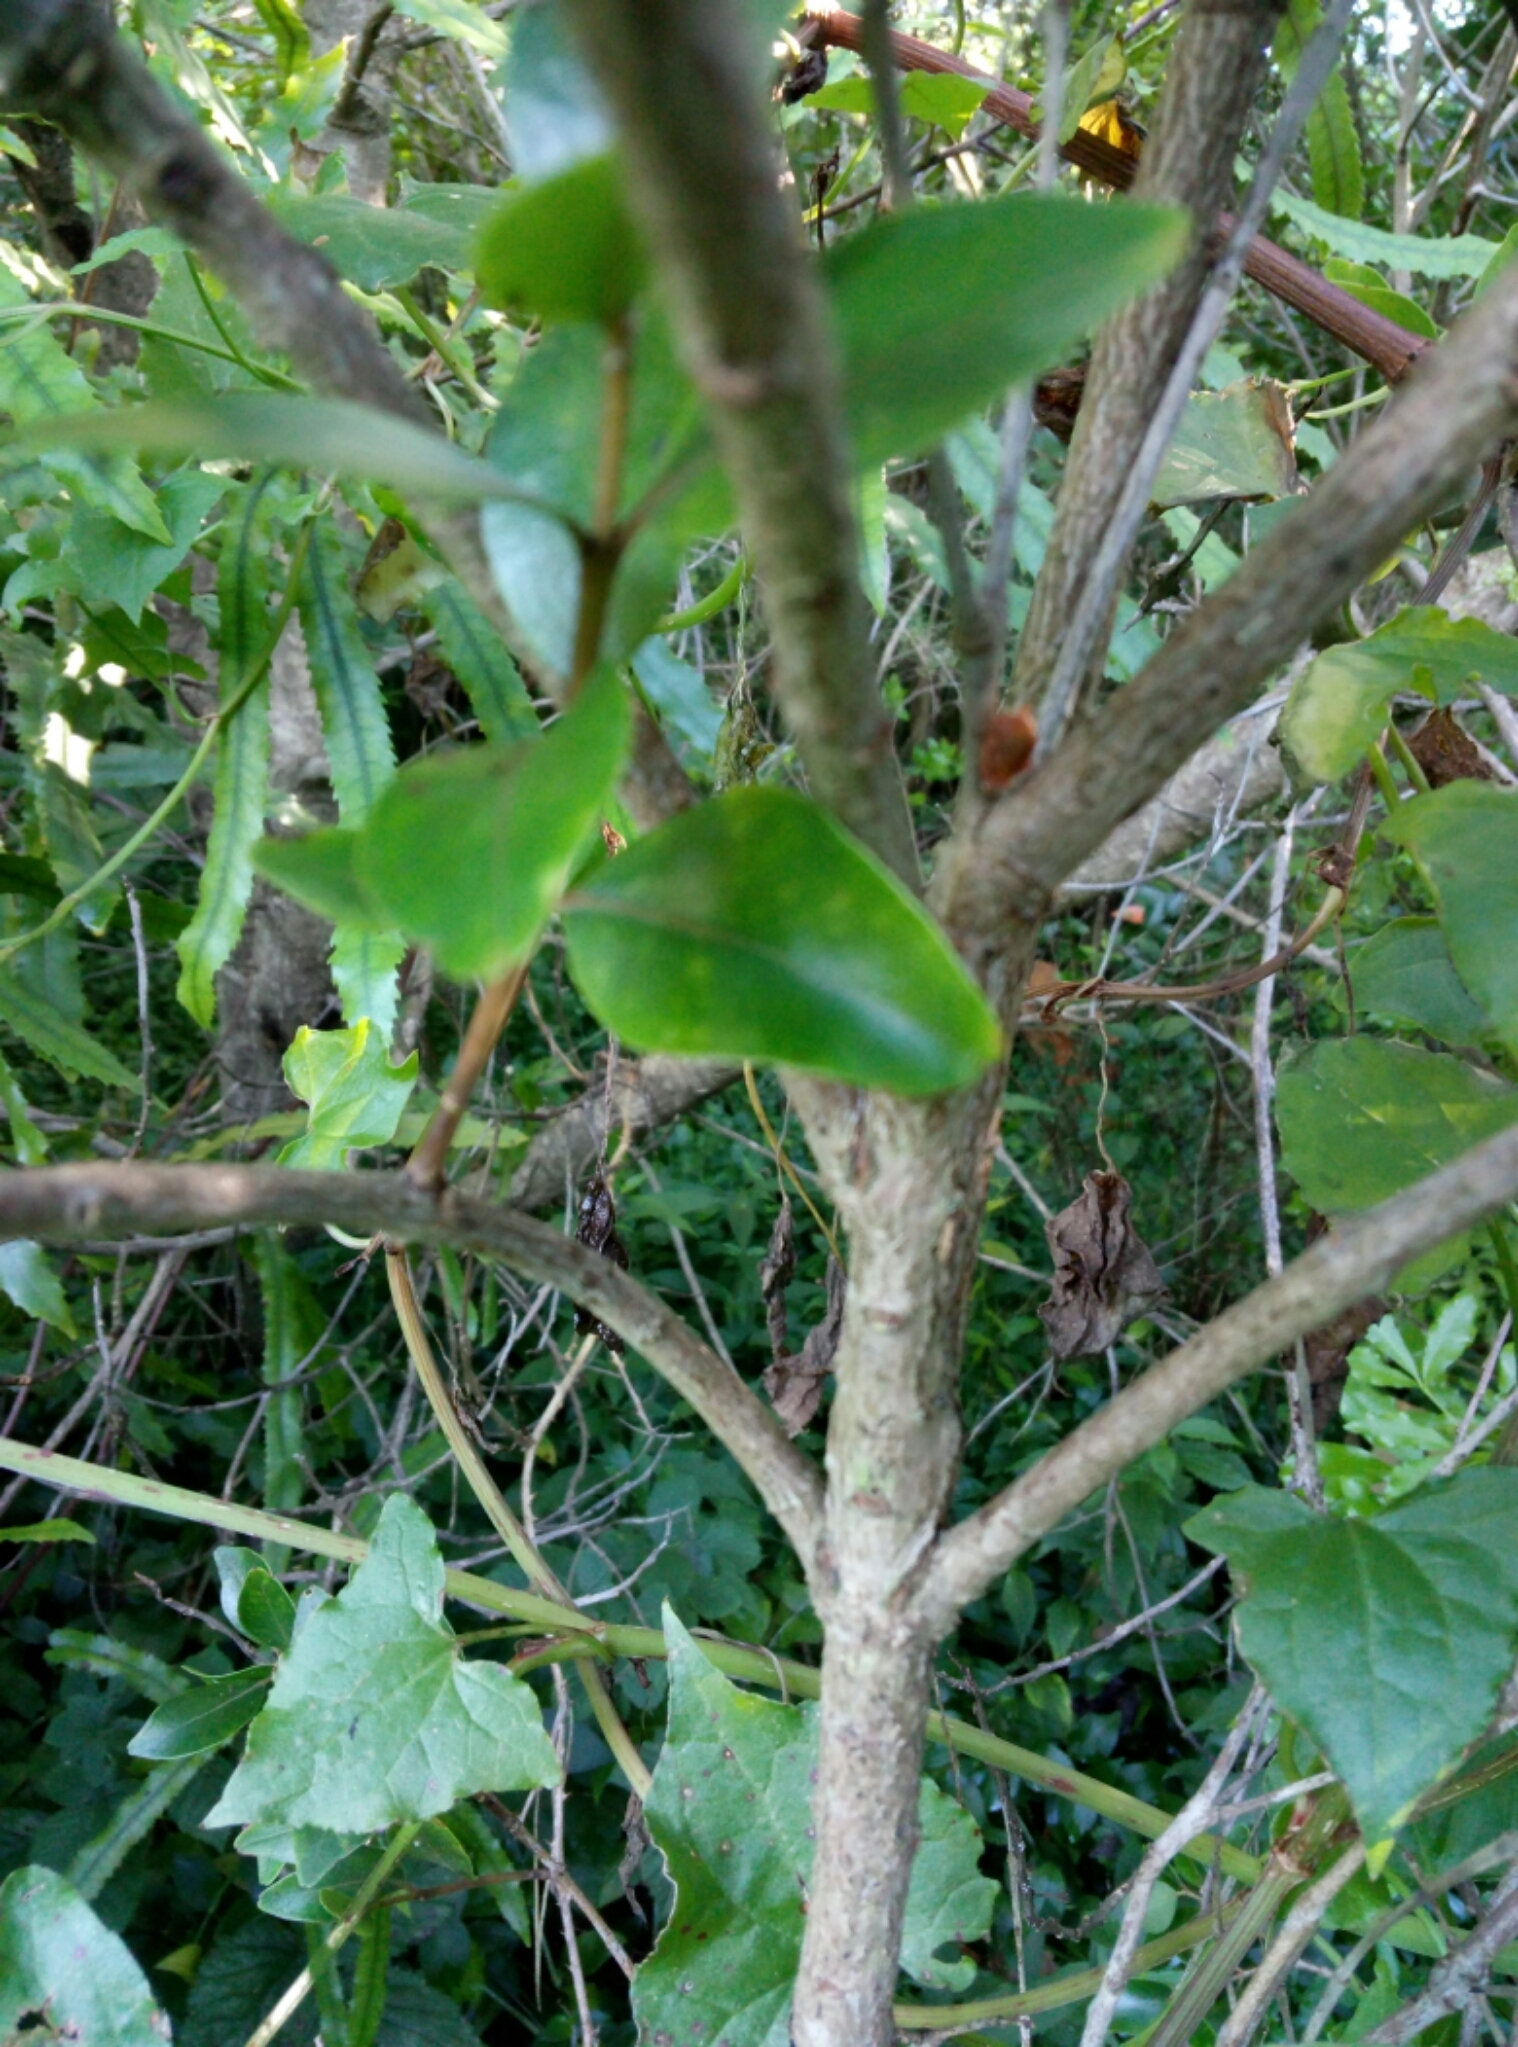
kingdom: Plantae
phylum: Tracheophyta
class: Magnoliopsida
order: Myrtales
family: Myrtaceae
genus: Metrosideros
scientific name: Metrosideros robusta
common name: Northern rata
